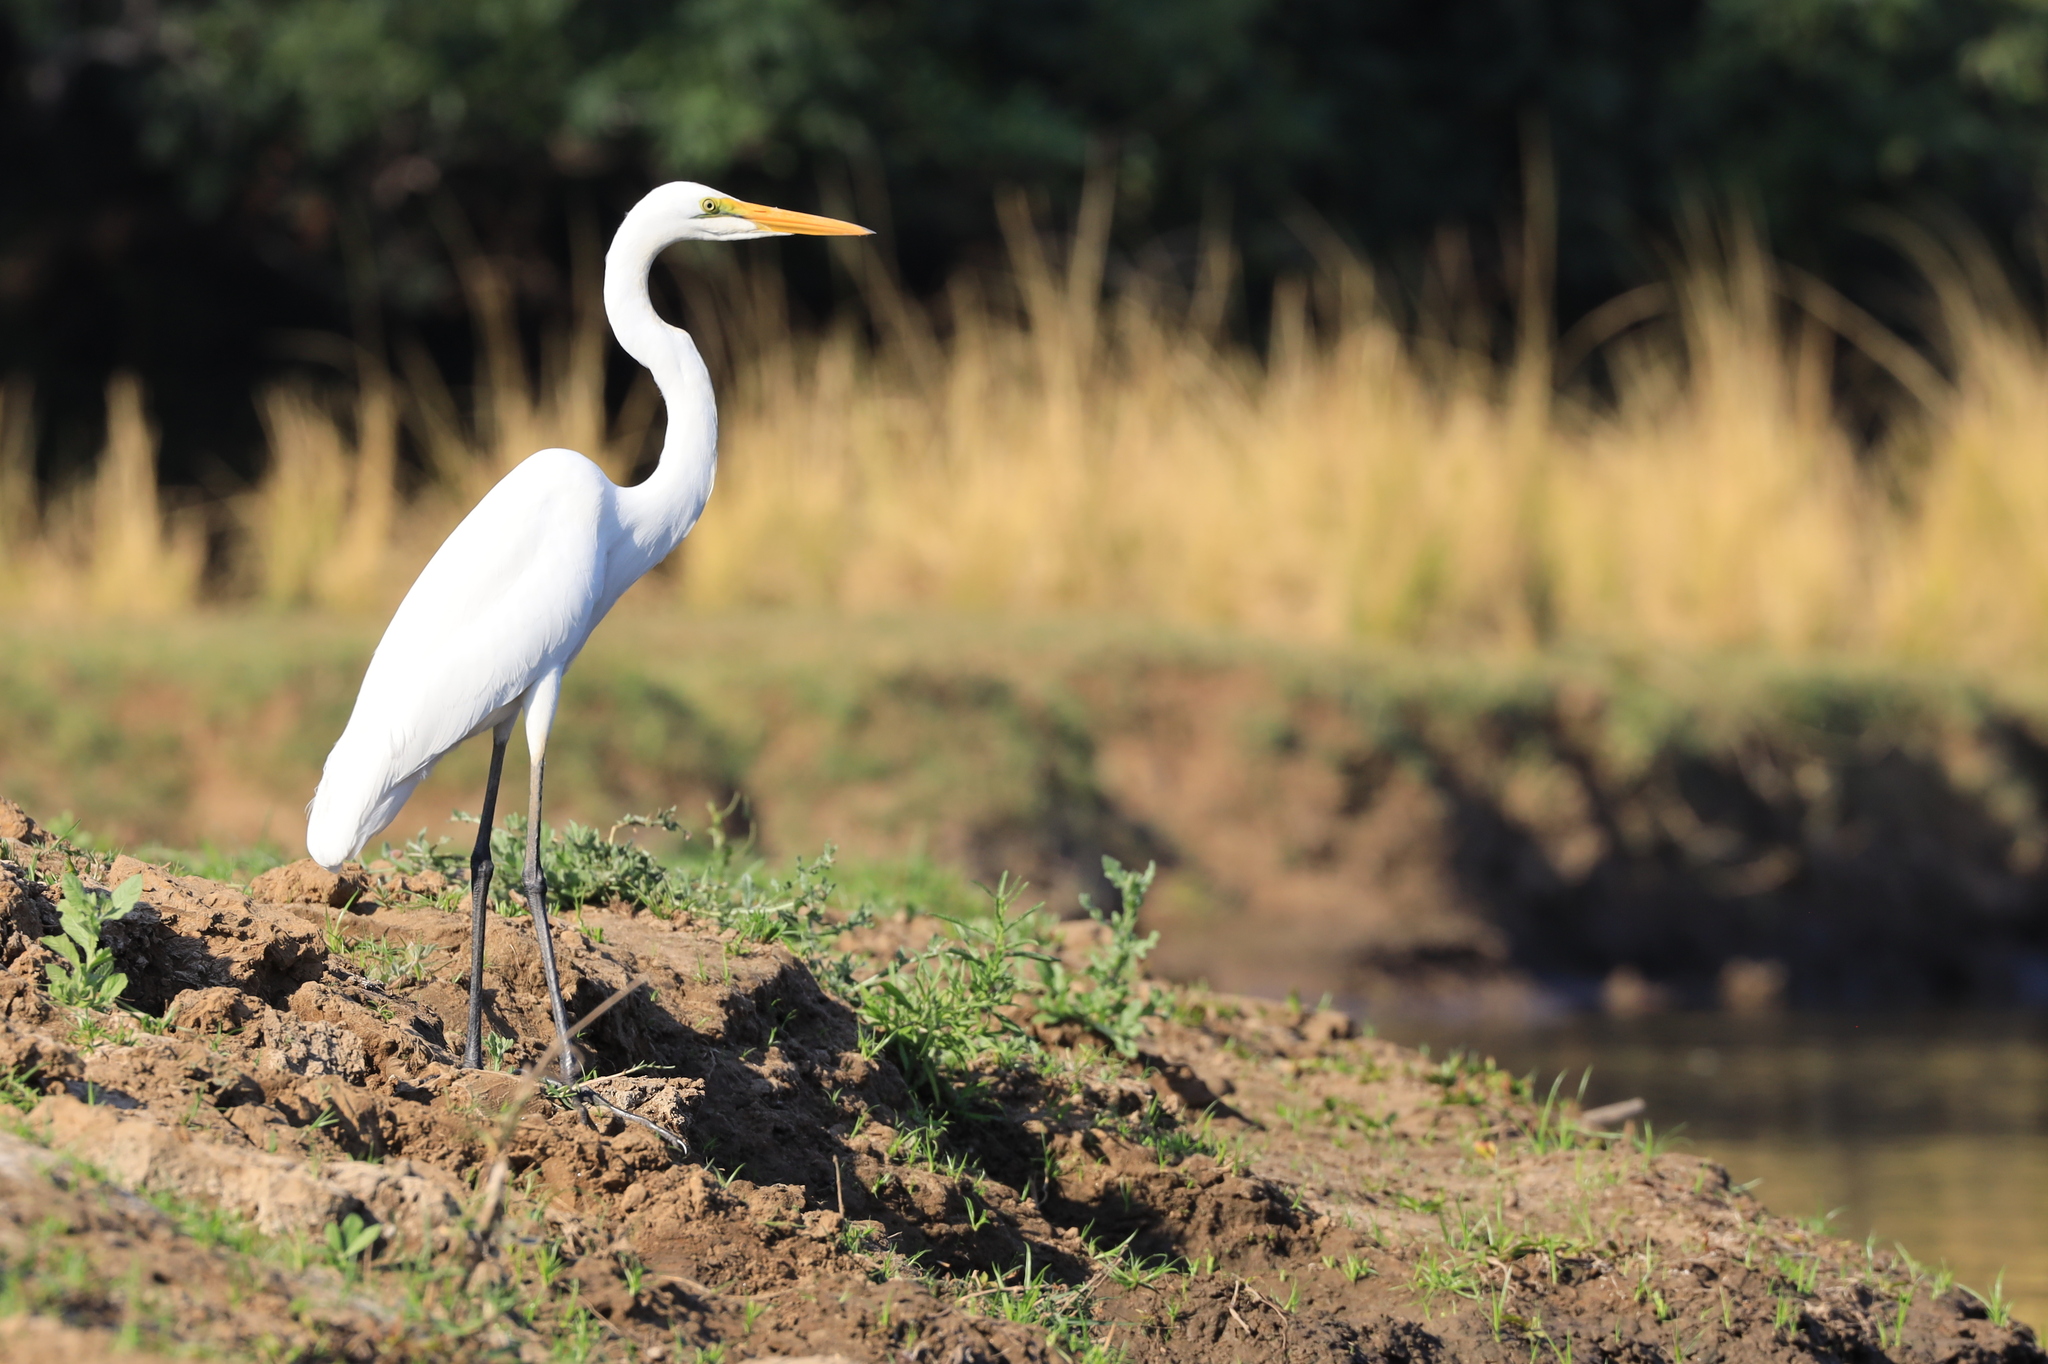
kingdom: Animalia
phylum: Chordata
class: Aves
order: Pelecaniformes
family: Ardeidae
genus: Ardea
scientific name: Ardea alba
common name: Great egret
